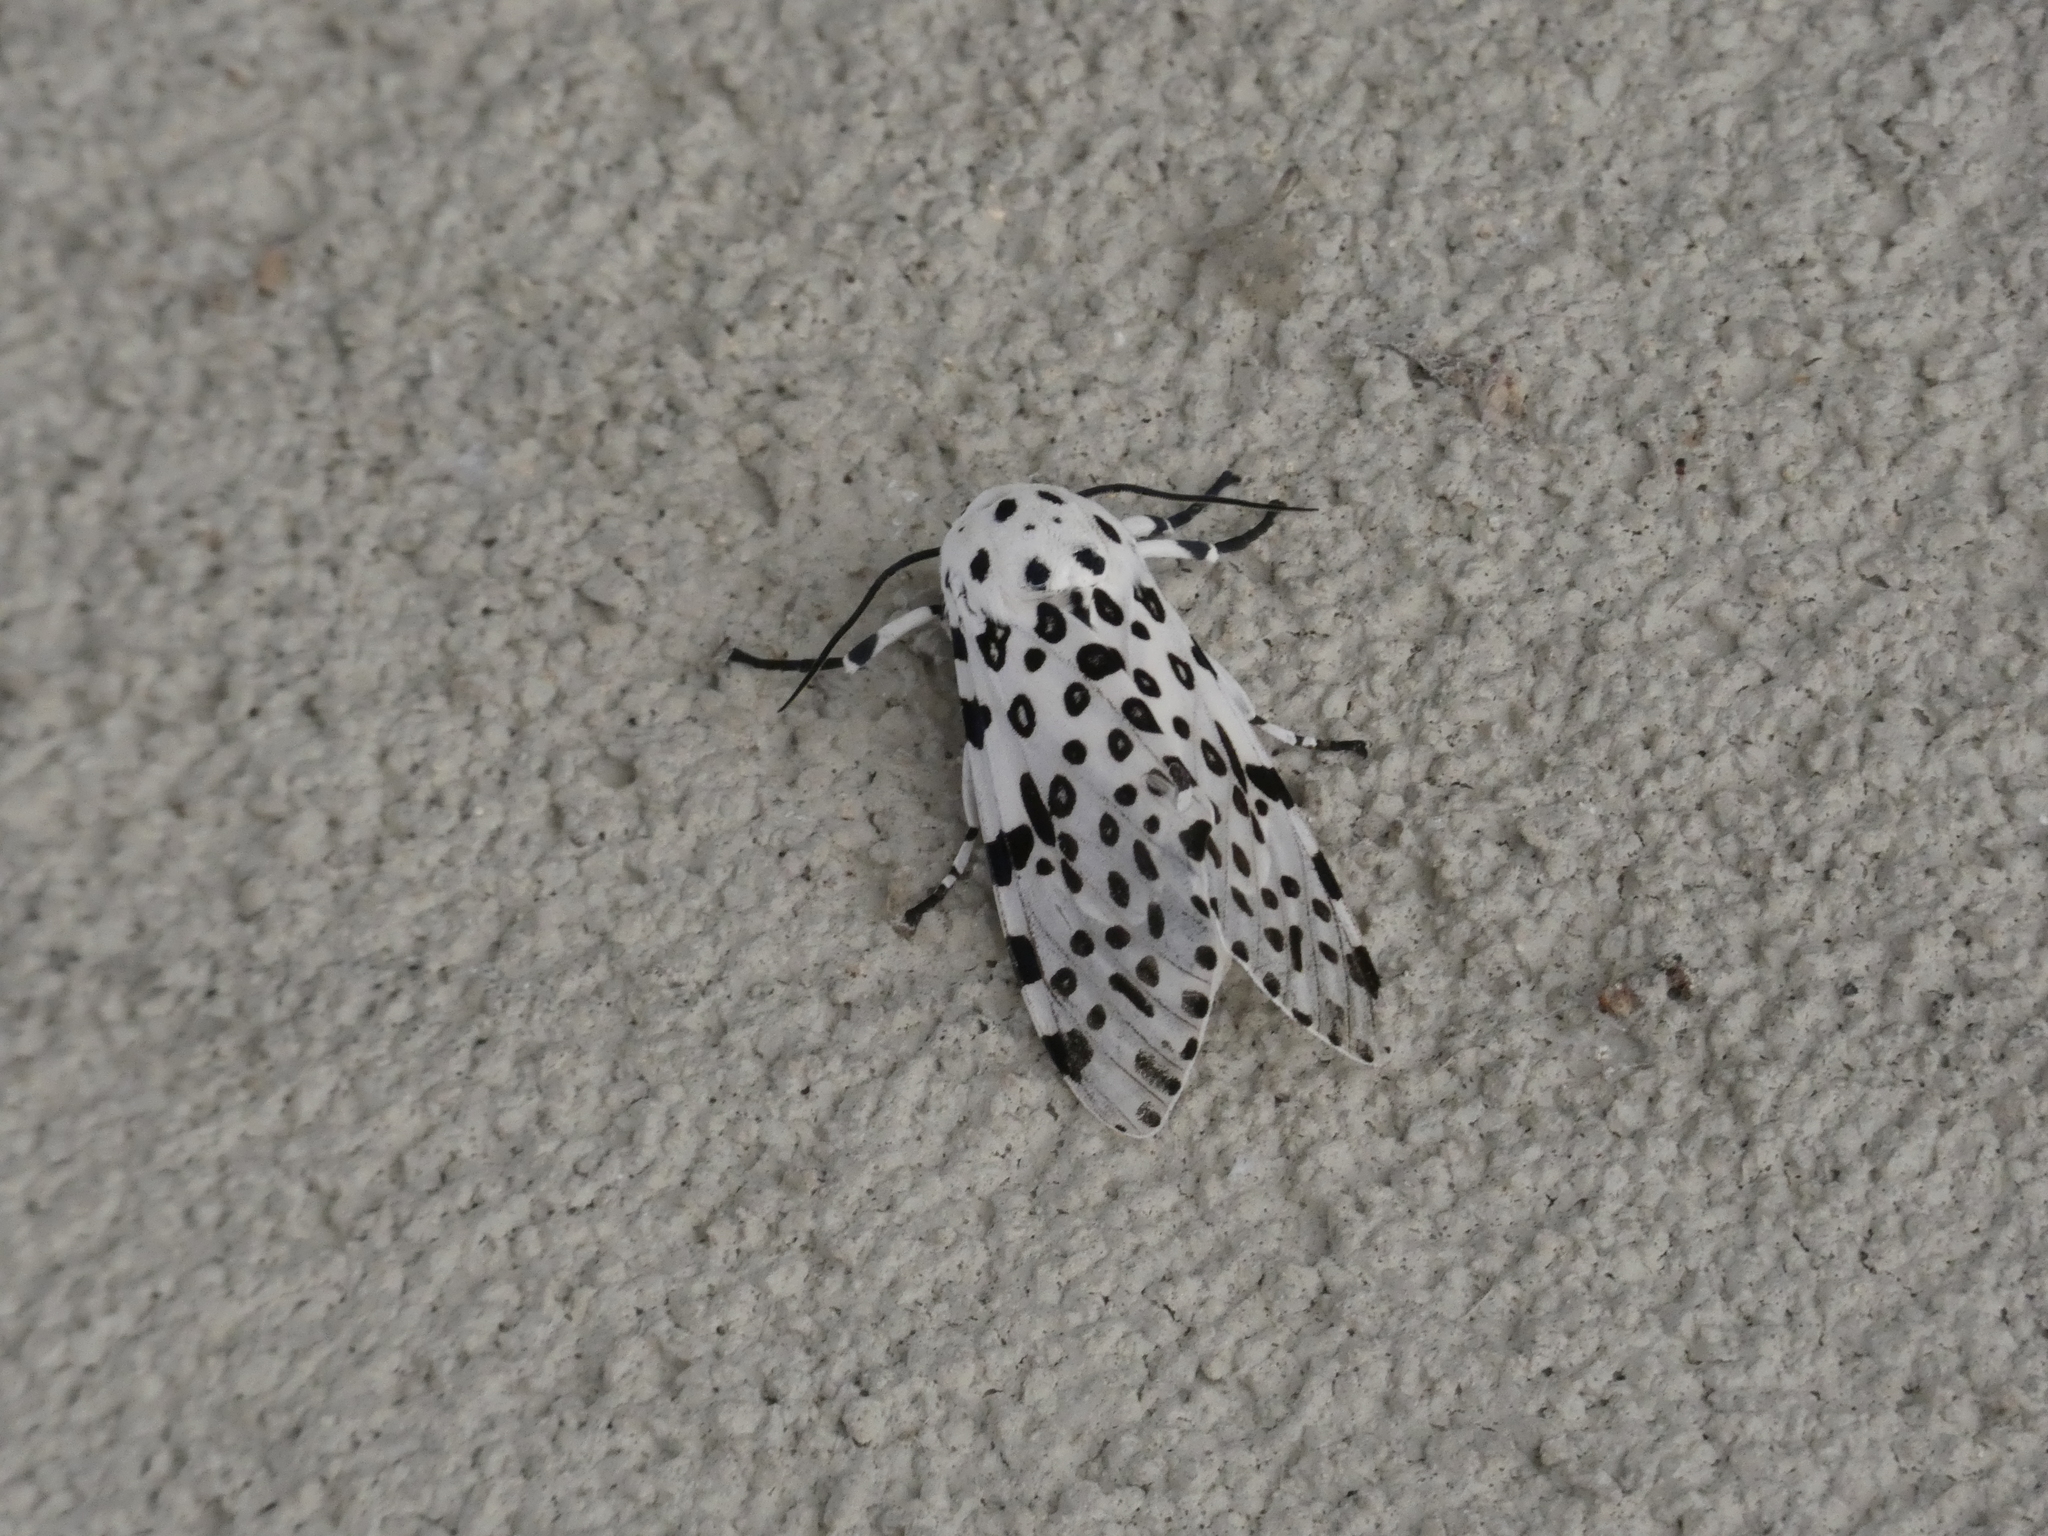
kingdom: Animalia
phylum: Arthropoda
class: Insecta
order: Lepidoptera
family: Erebidae
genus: Hypercompe
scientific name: Hypercompe scribonia
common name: Giant leopard moth
